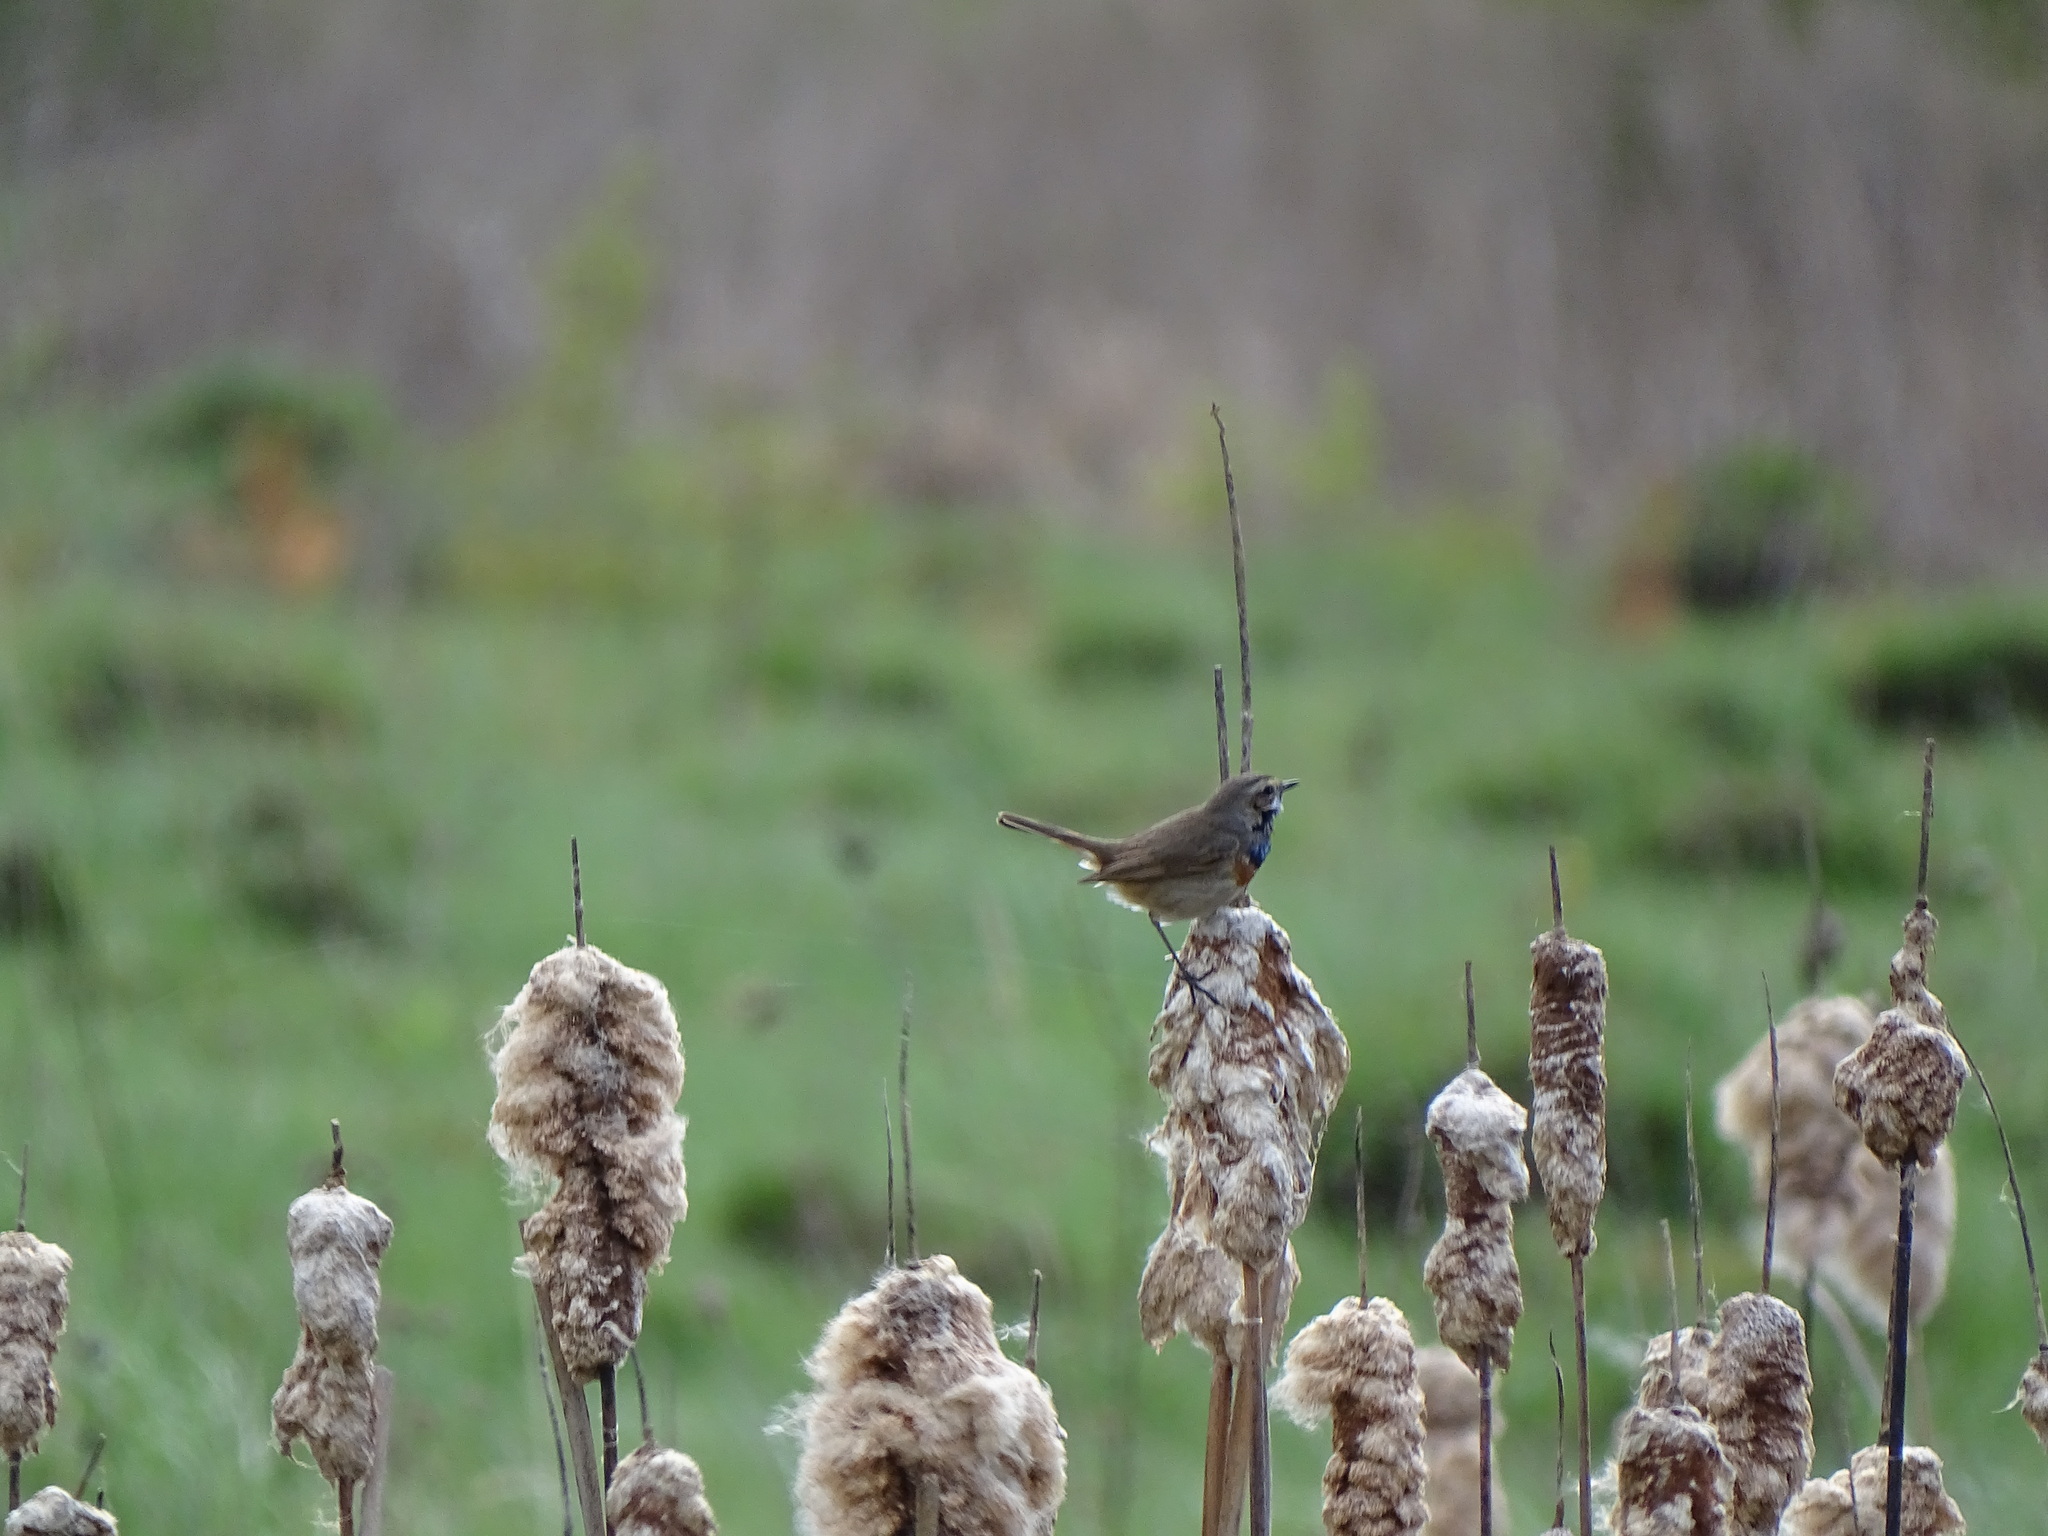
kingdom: Animalia
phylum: Chordata
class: Aves
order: Passeriformes
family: Muscicapidae
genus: Luscinia
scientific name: Luscinia svecica
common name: Bluethroat
